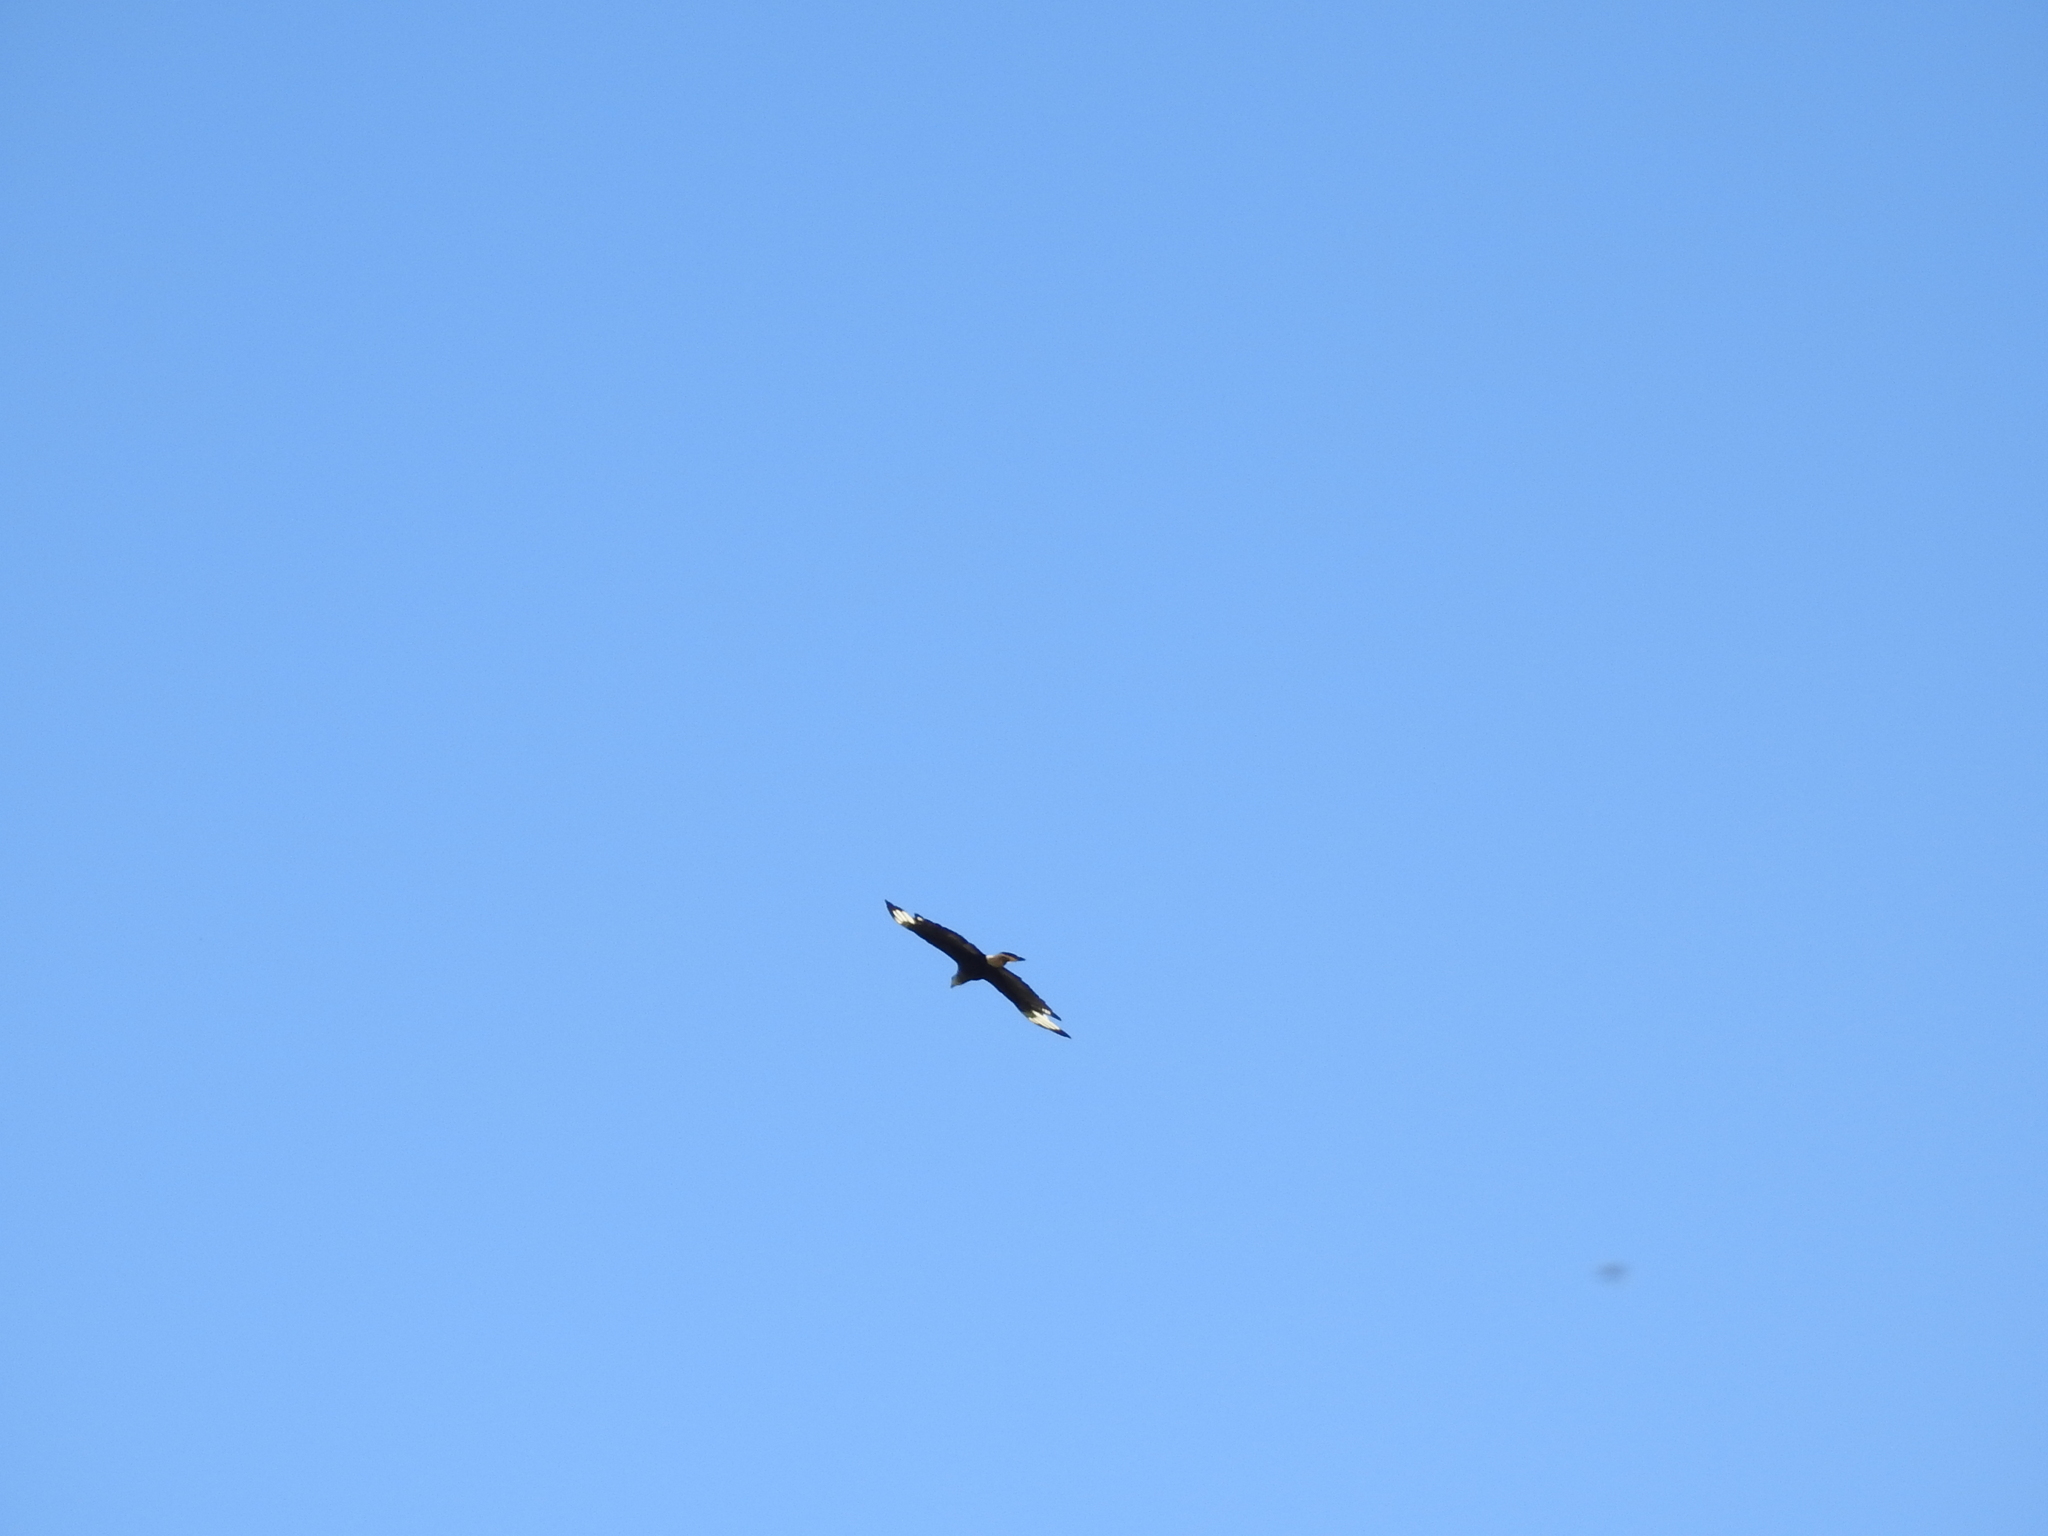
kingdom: Animalia
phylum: Chordata
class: Aves
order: Falconiformes
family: Falconidae
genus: Caracara
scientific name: Caracara plancus
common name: Southern caracara
